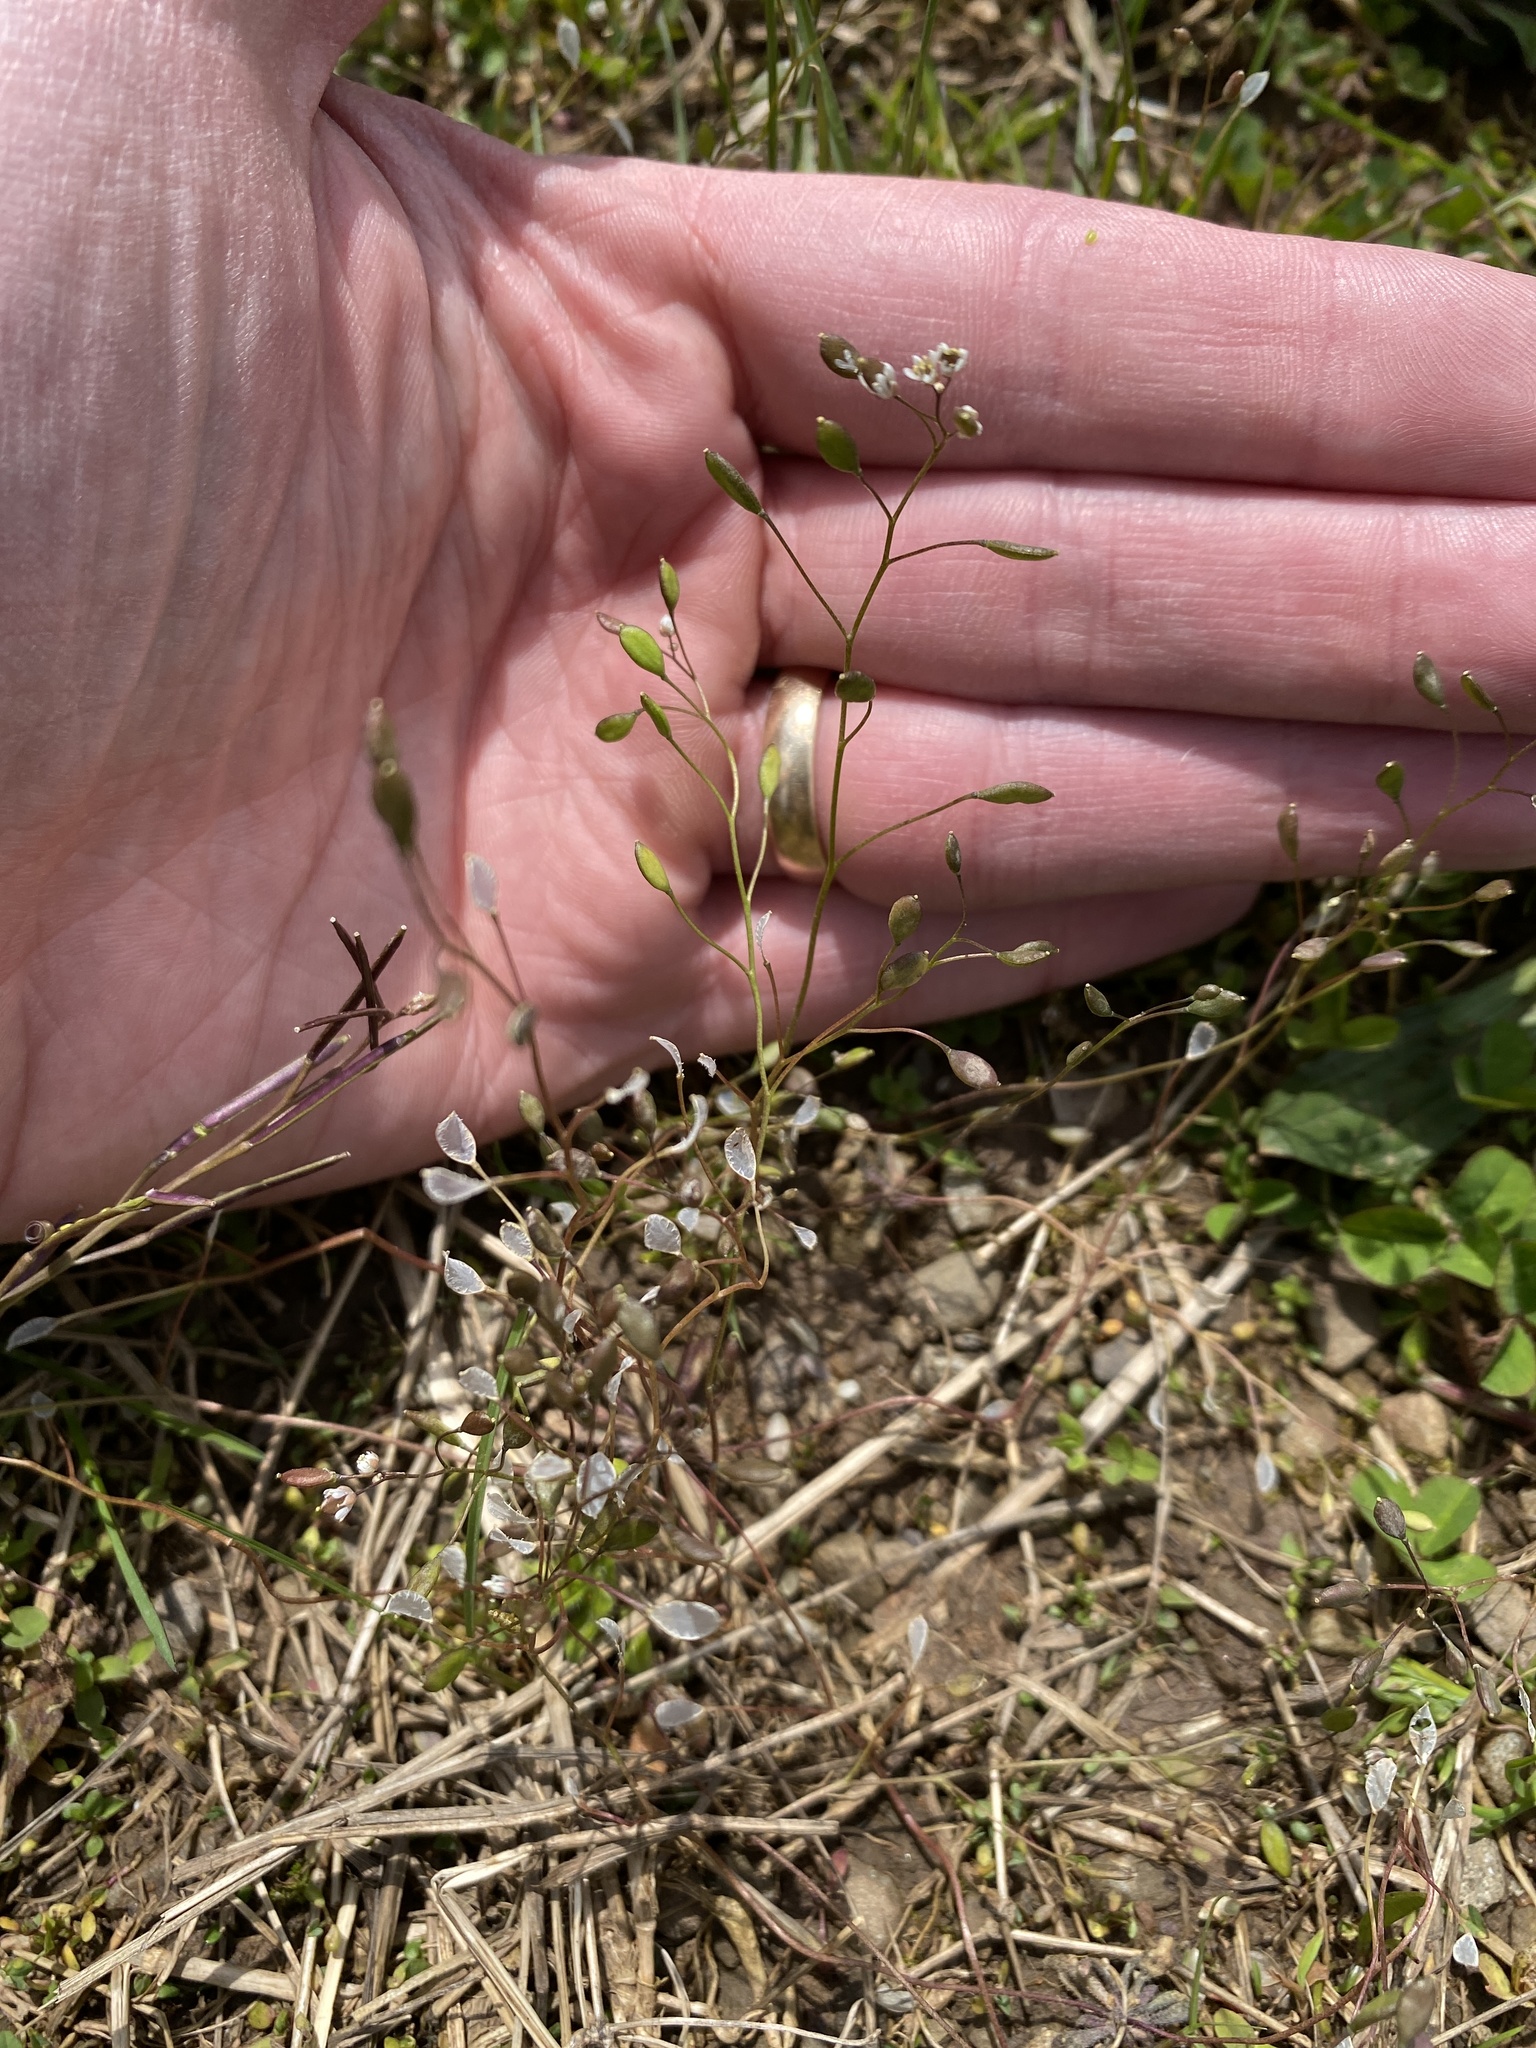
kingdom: Plantae
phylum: Tracheophyta
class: Magnoliopsida
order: Brassicales
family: Brassicaceae
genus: Draba
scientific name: Draba verna
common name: Spring draba
